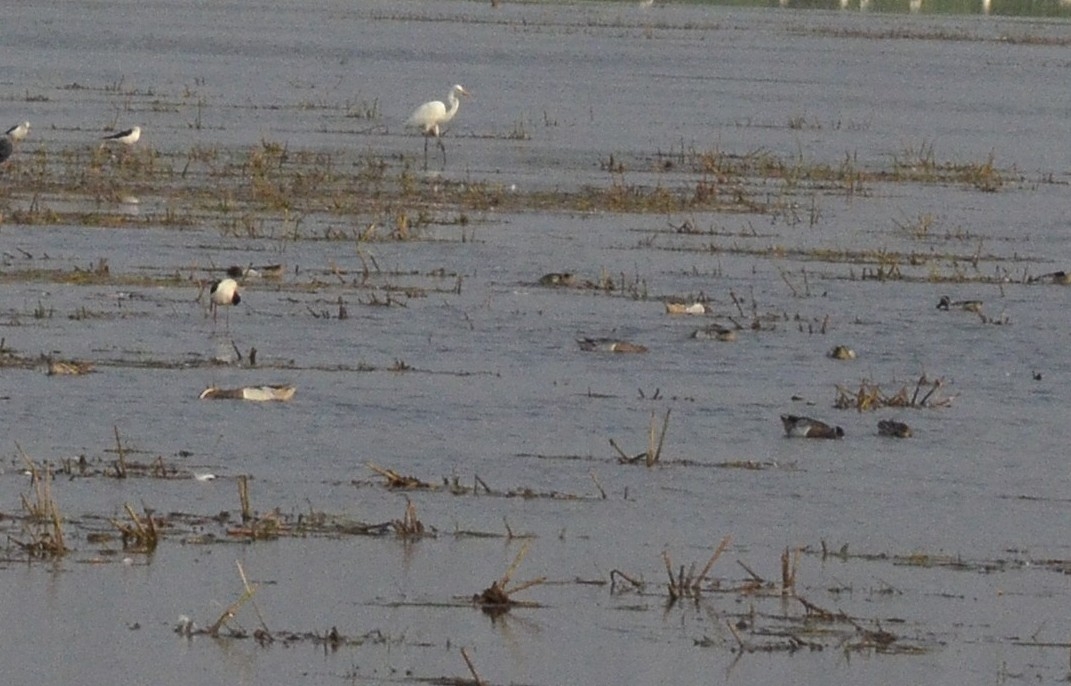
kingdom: Animalia
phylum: Chordata
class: Aves
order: Anseriformes
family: Anatidae
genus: Spatula
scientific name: Spatula querquedula
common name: Garganey
